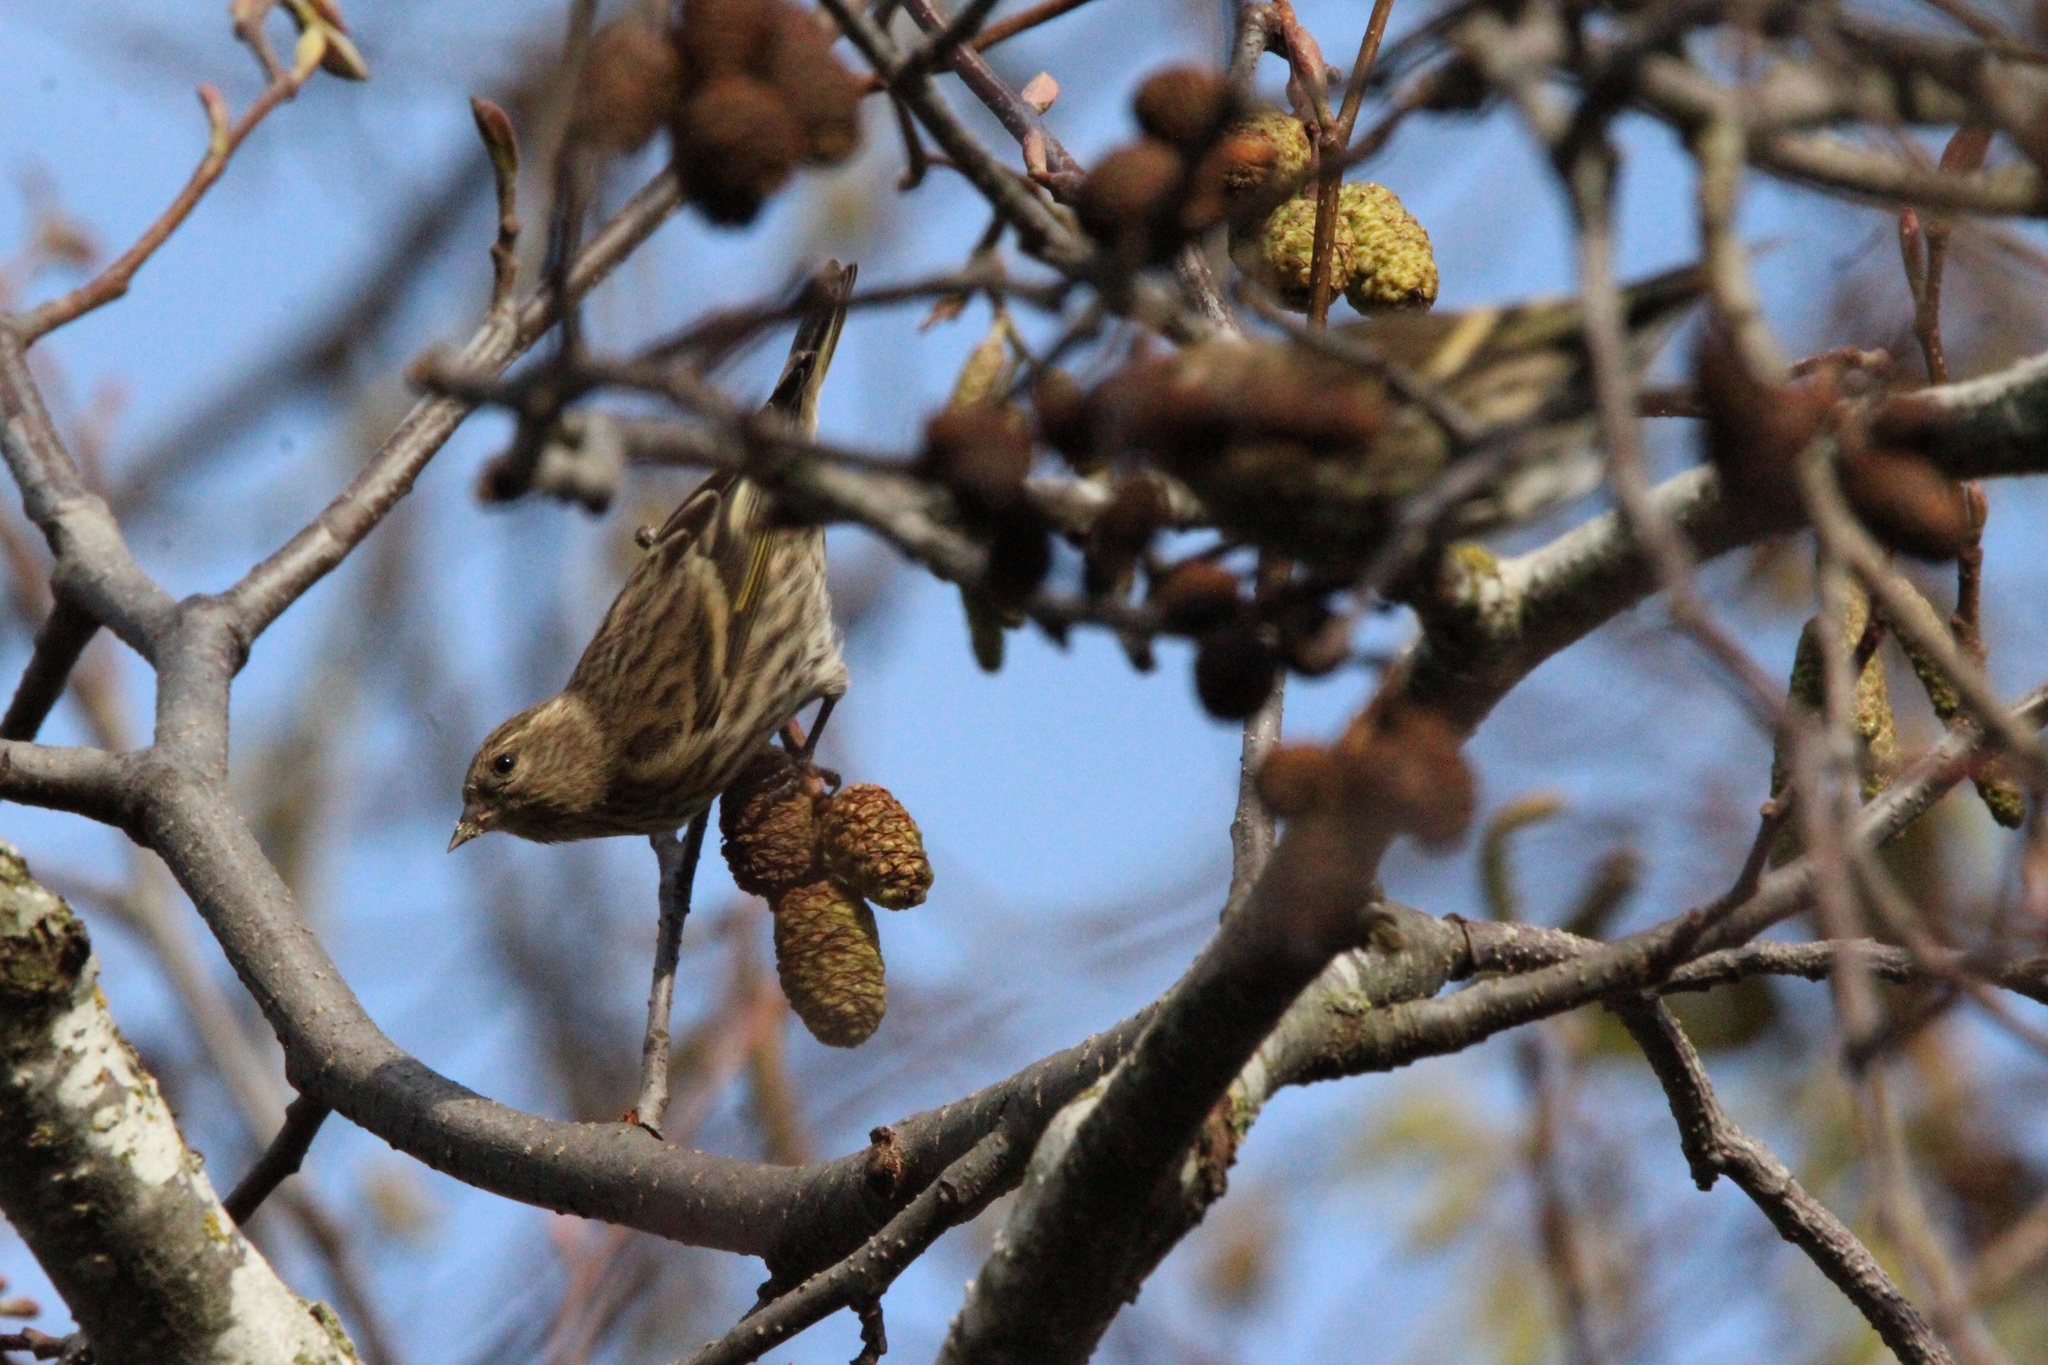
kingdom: Animalia
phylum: Chordata
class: Aves
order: Passeriformes
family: Fringillidae
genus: Spinus
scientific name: Spinus pinus
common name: Pine siskin
